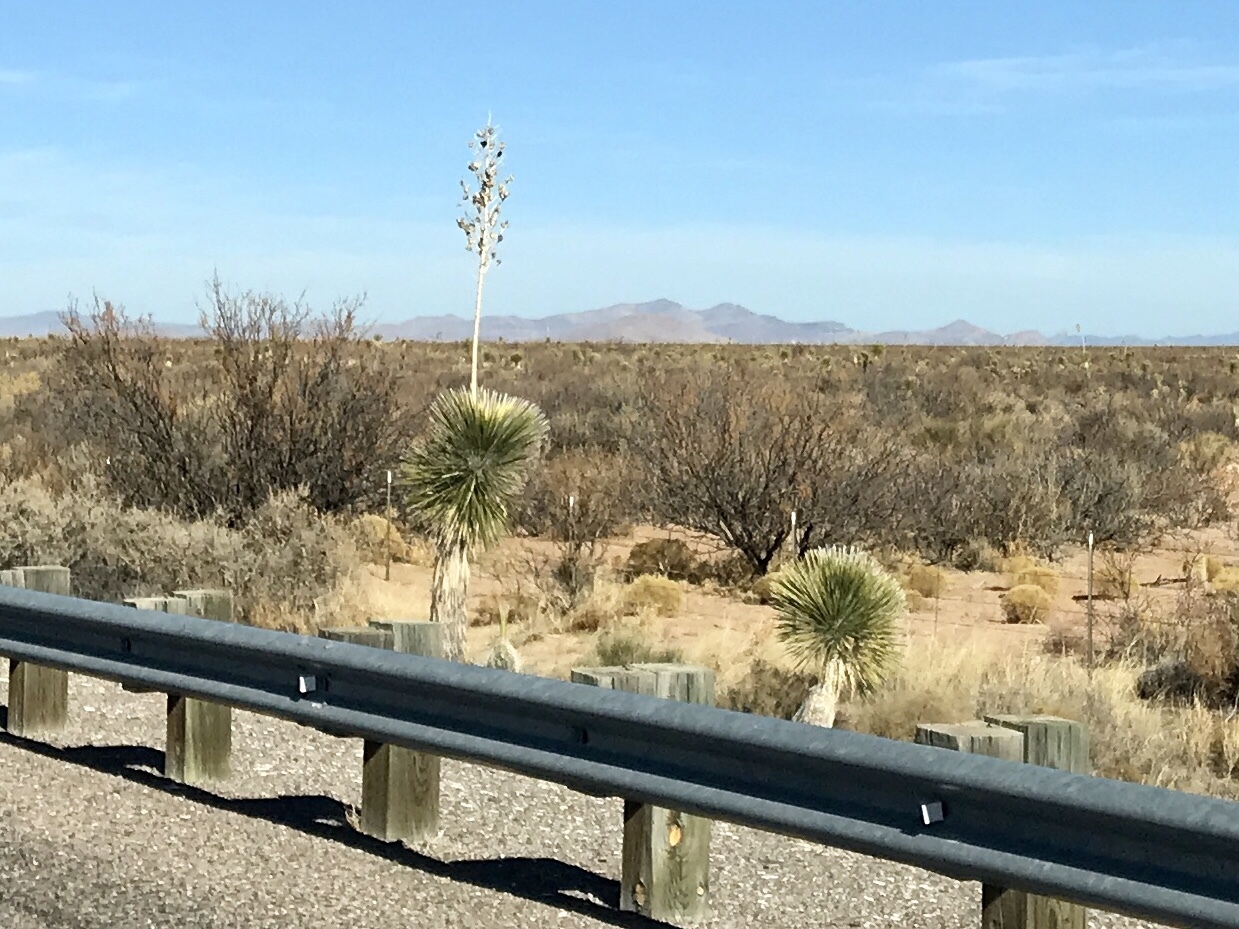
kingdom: Plantae
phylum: Tracheophyta
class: Liliopsida
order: Asparagales
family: Asparagaceae
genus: Yucca
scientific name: Yucca elata
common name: Palmella
